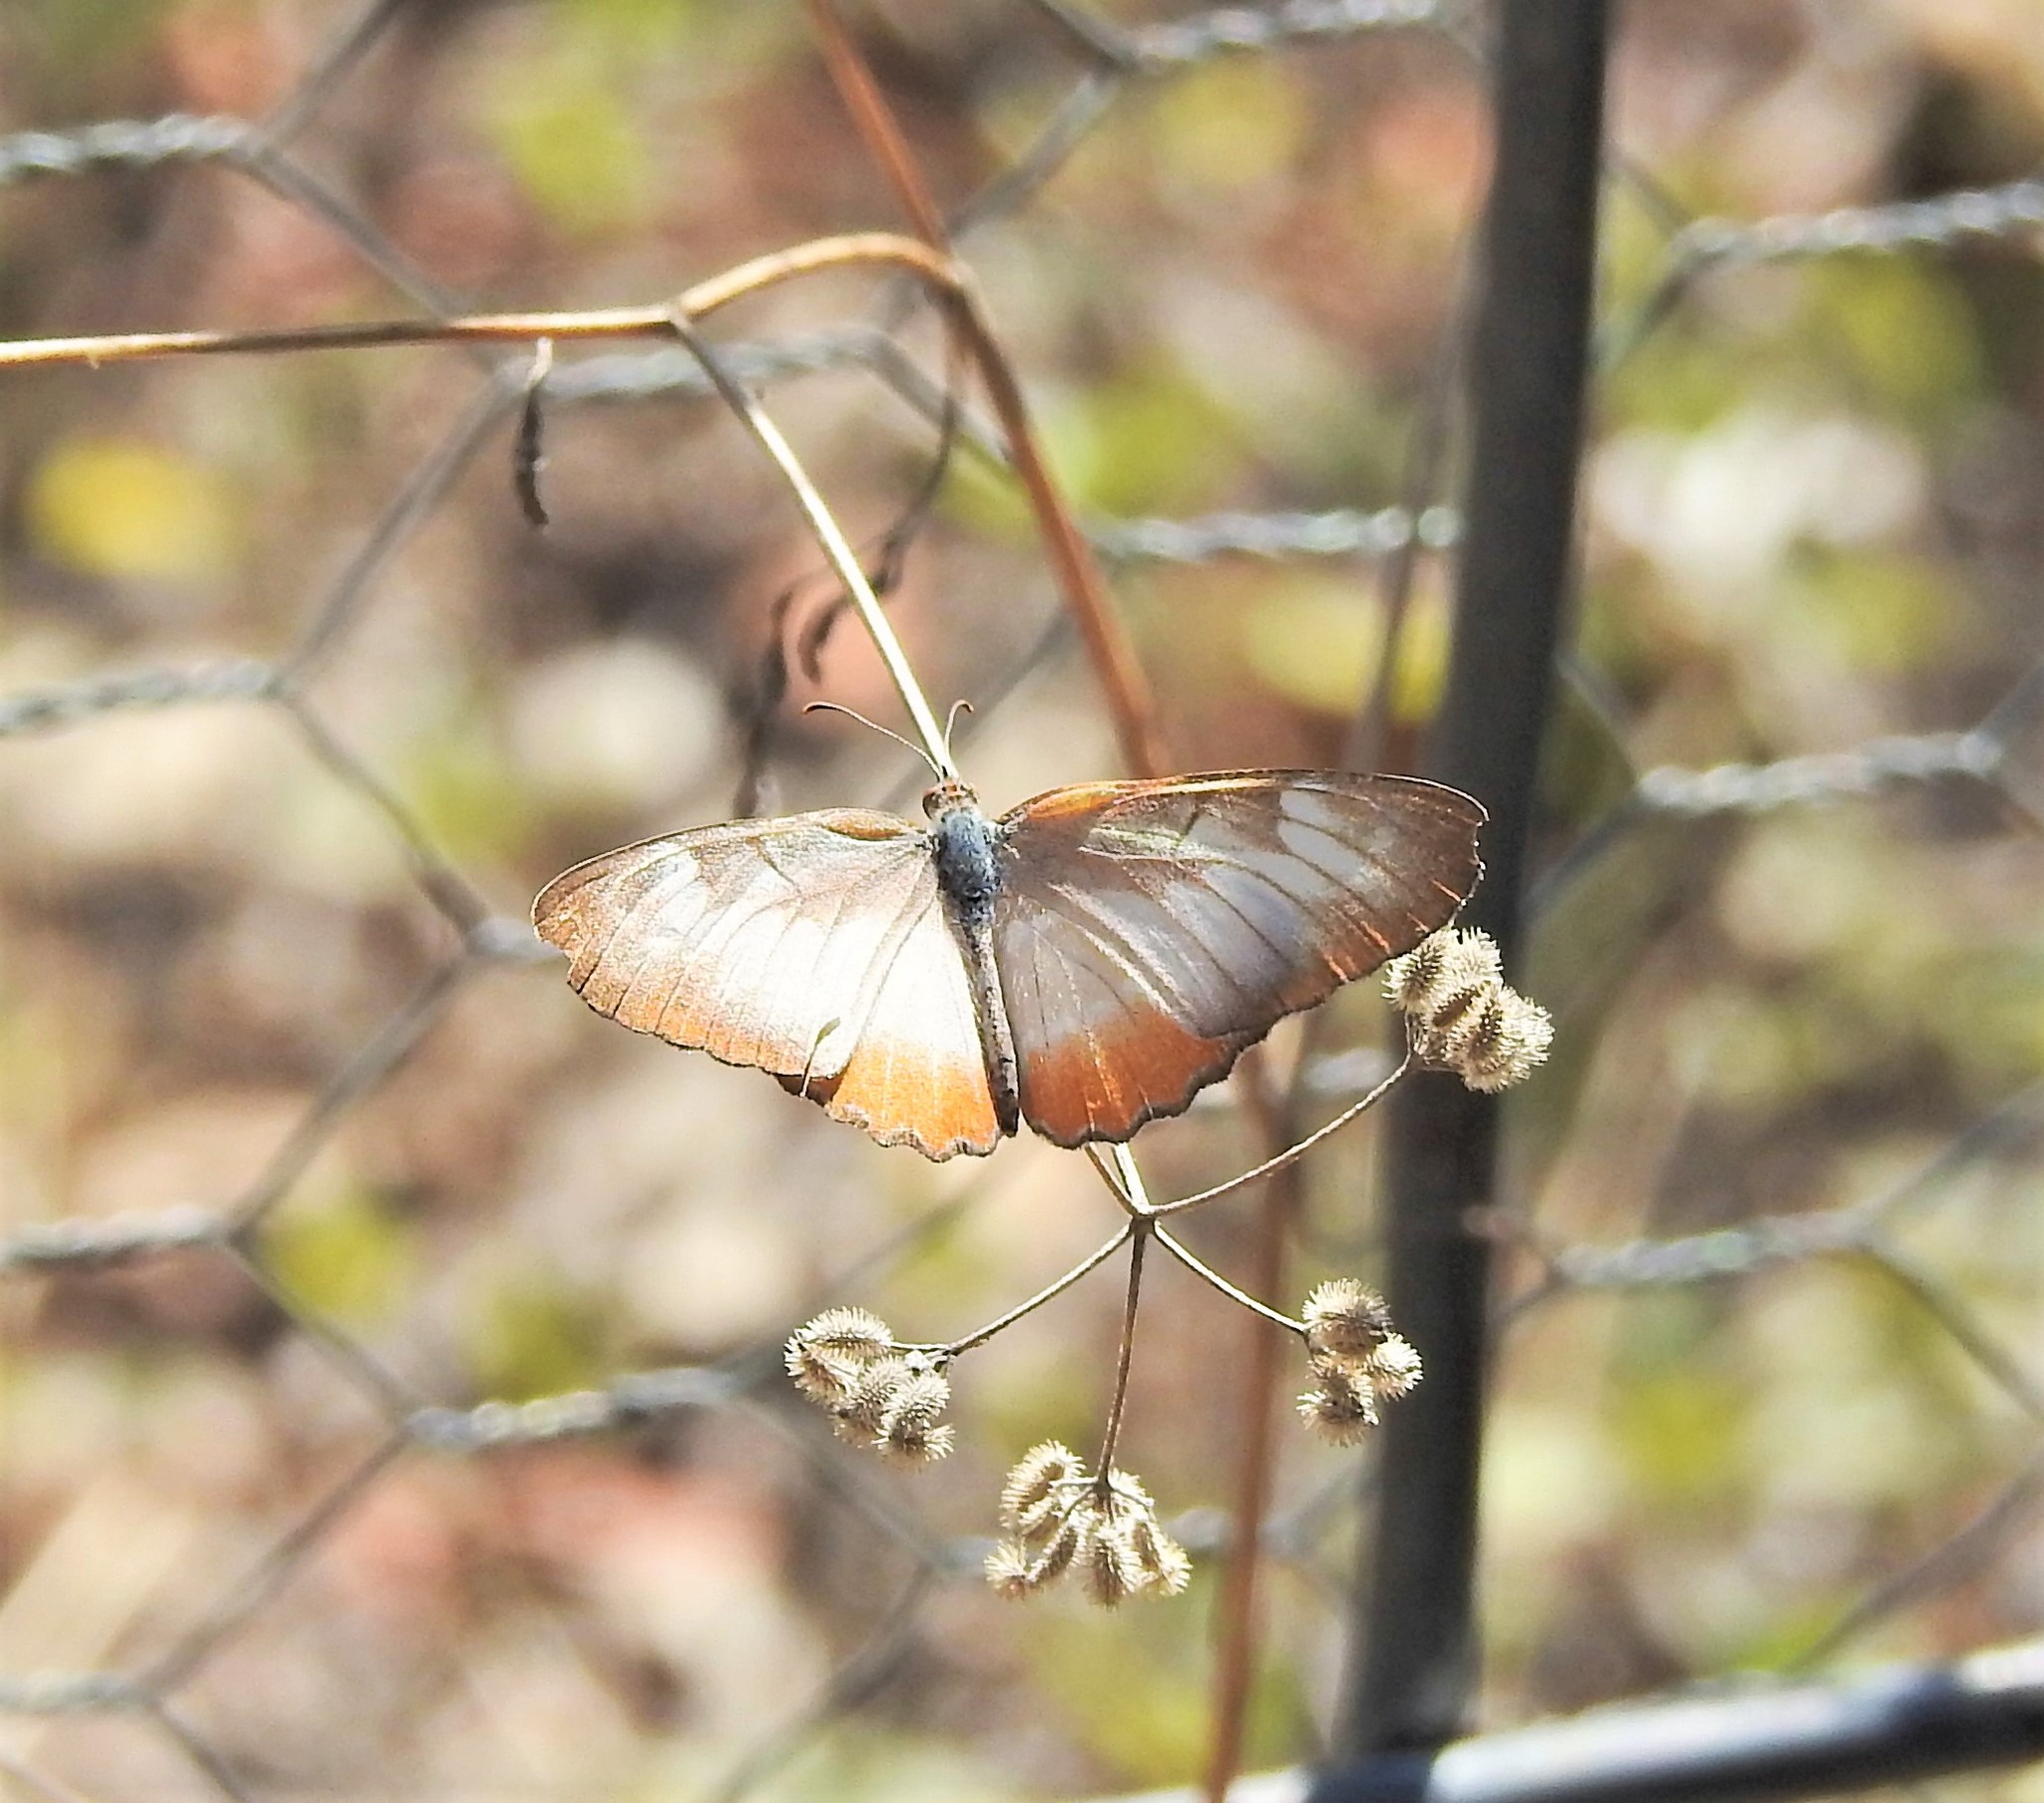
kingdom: Animalia
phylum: Arthropoda
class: Insecta
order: Lepidoptera
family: Nymphalidae
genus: Mestra
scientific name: Mestra amymone
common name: Common mestra
